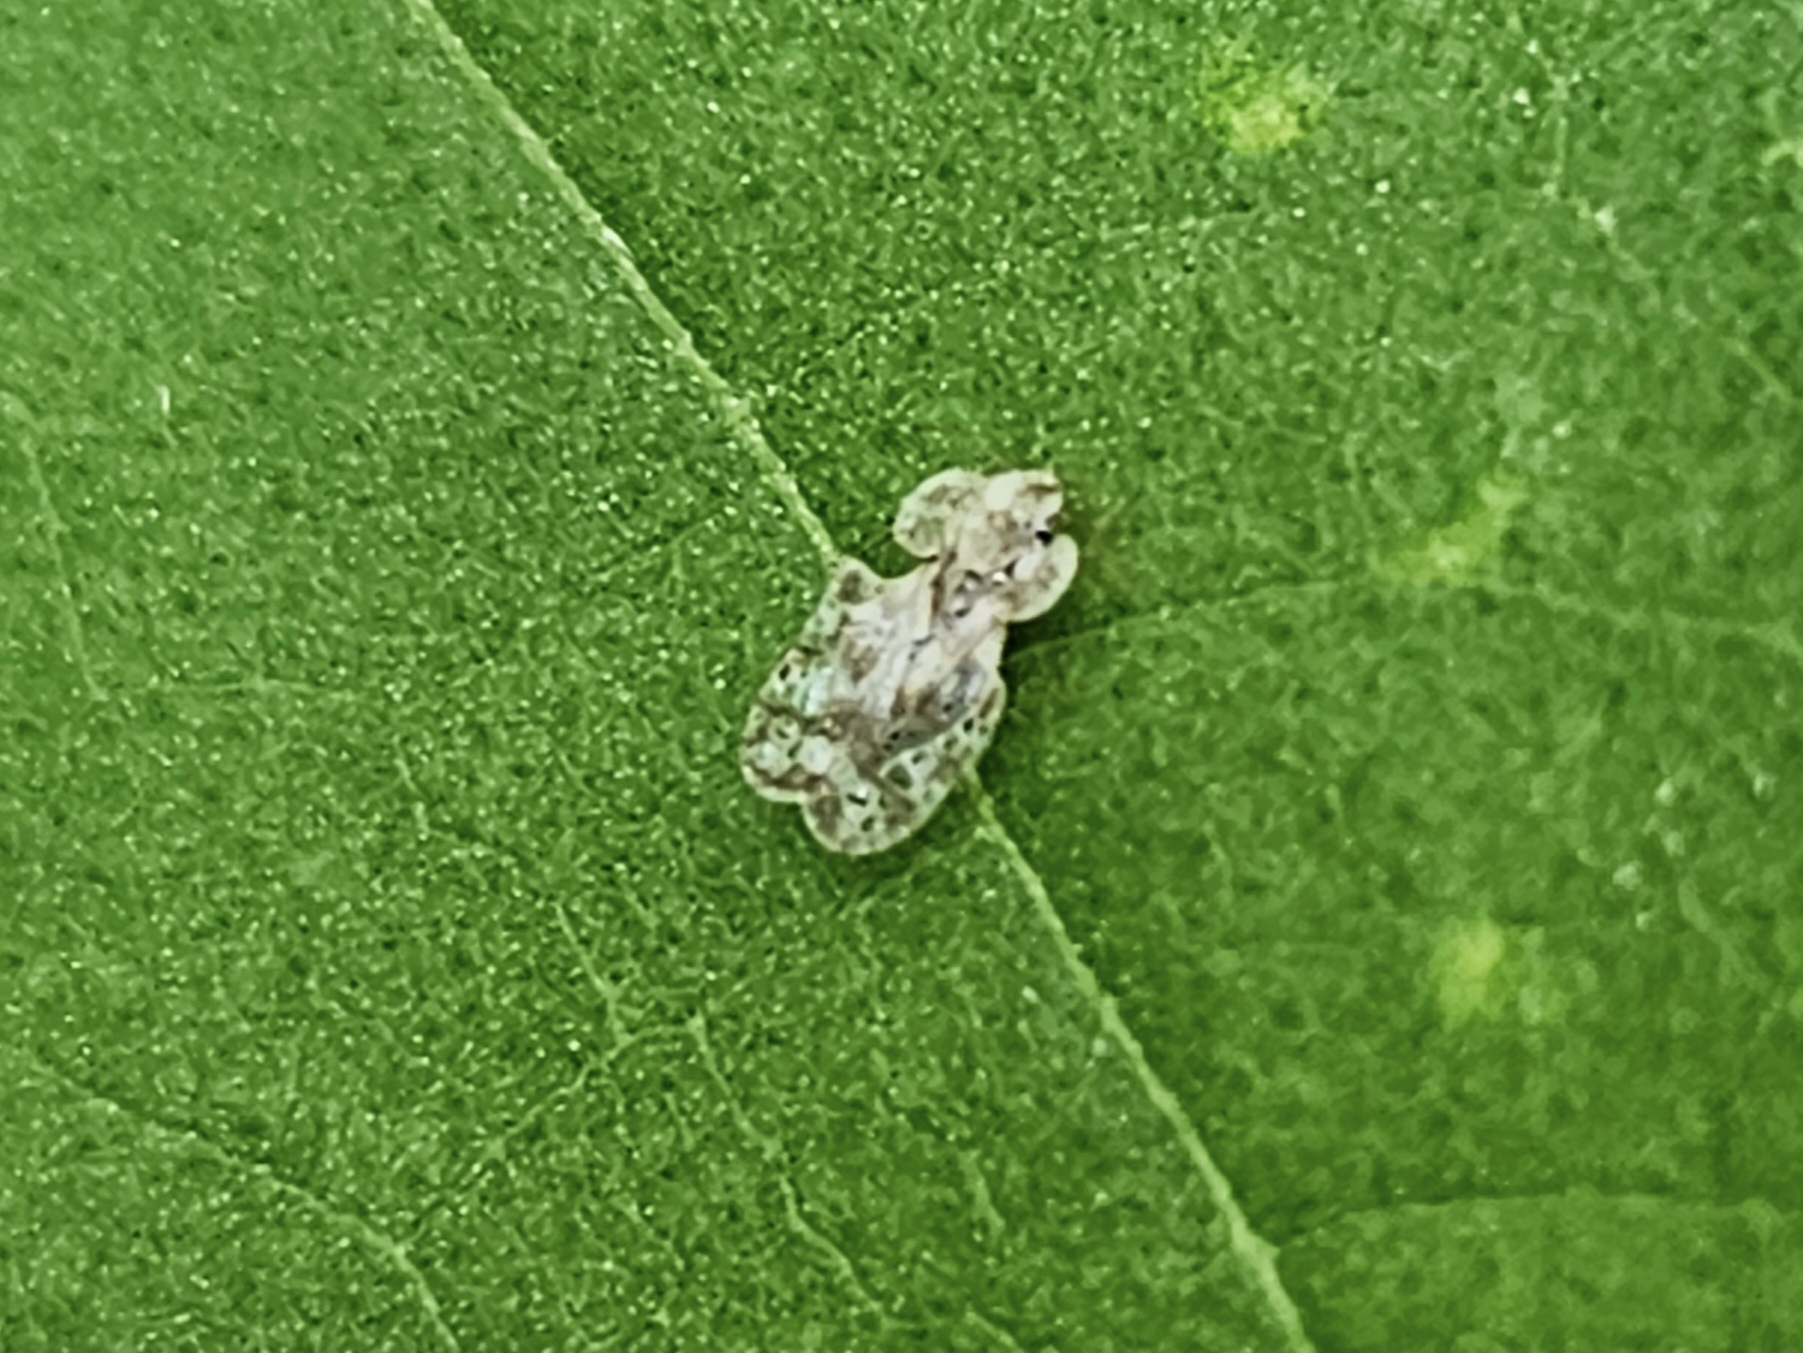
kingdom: Animalia
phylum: Arthropoda
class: Insecta
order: Hemiptera
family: Tingidae
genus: Corythucha
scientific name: Corythucha marmorata
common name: Chrysanthemum lace bug
